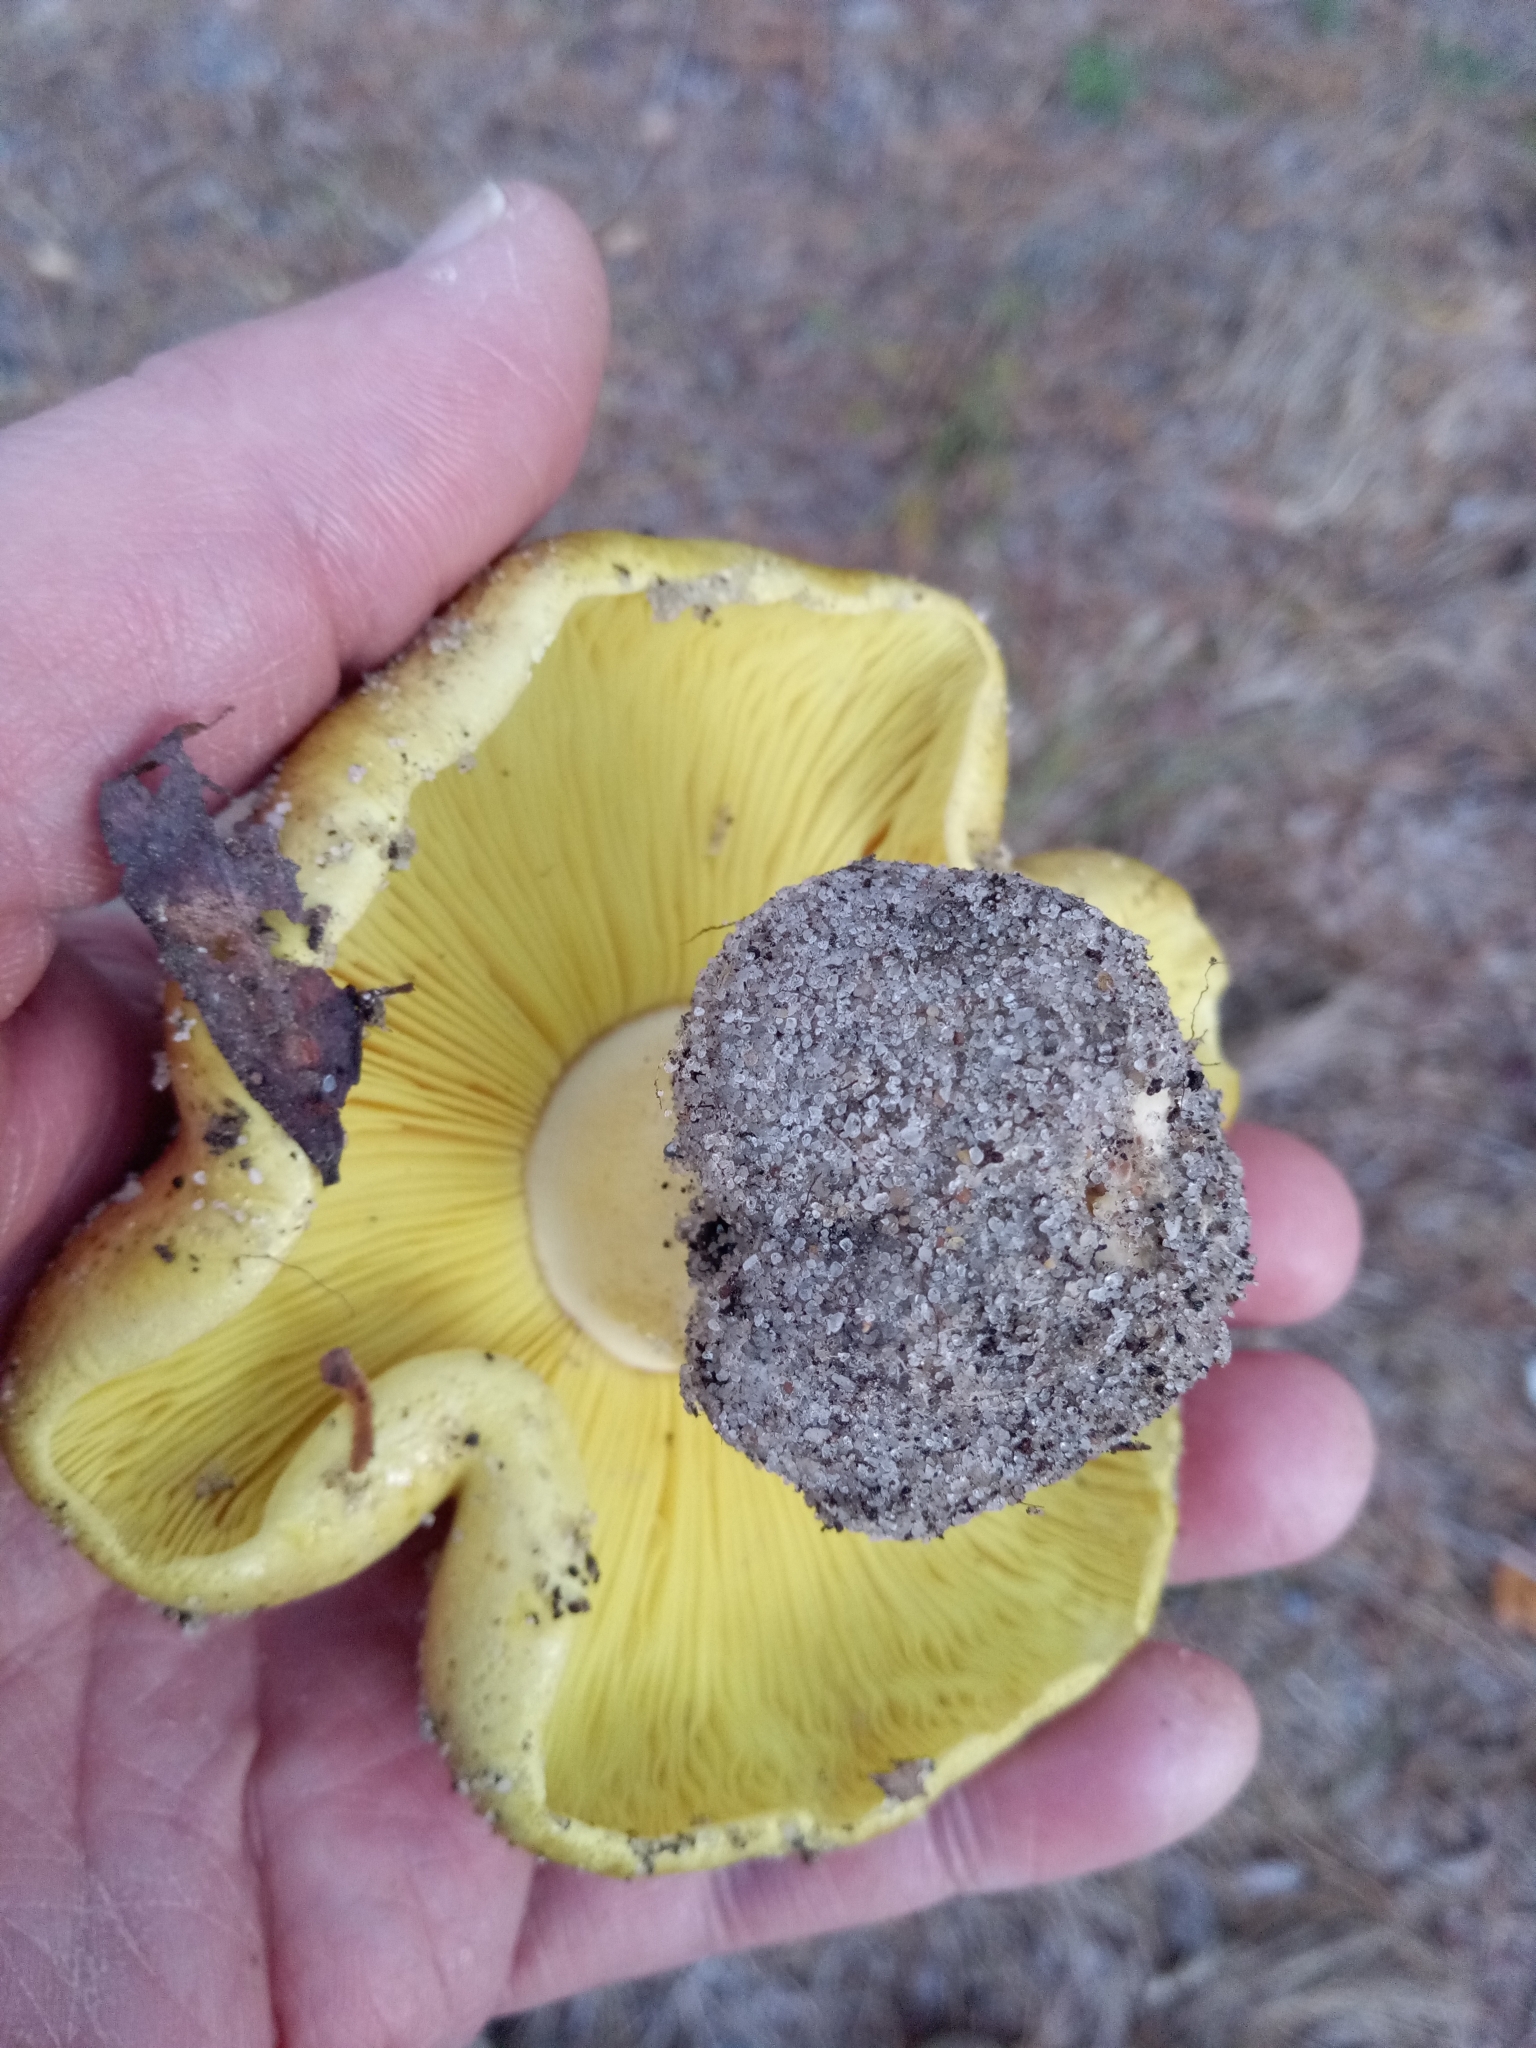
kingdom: Fungi
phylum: Basidiomycota
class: Agaricomycetes
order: Agaricales
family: Tricholomataceae
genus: Tricholoma
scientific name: Tricholoma equestre
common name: Yellow knight
